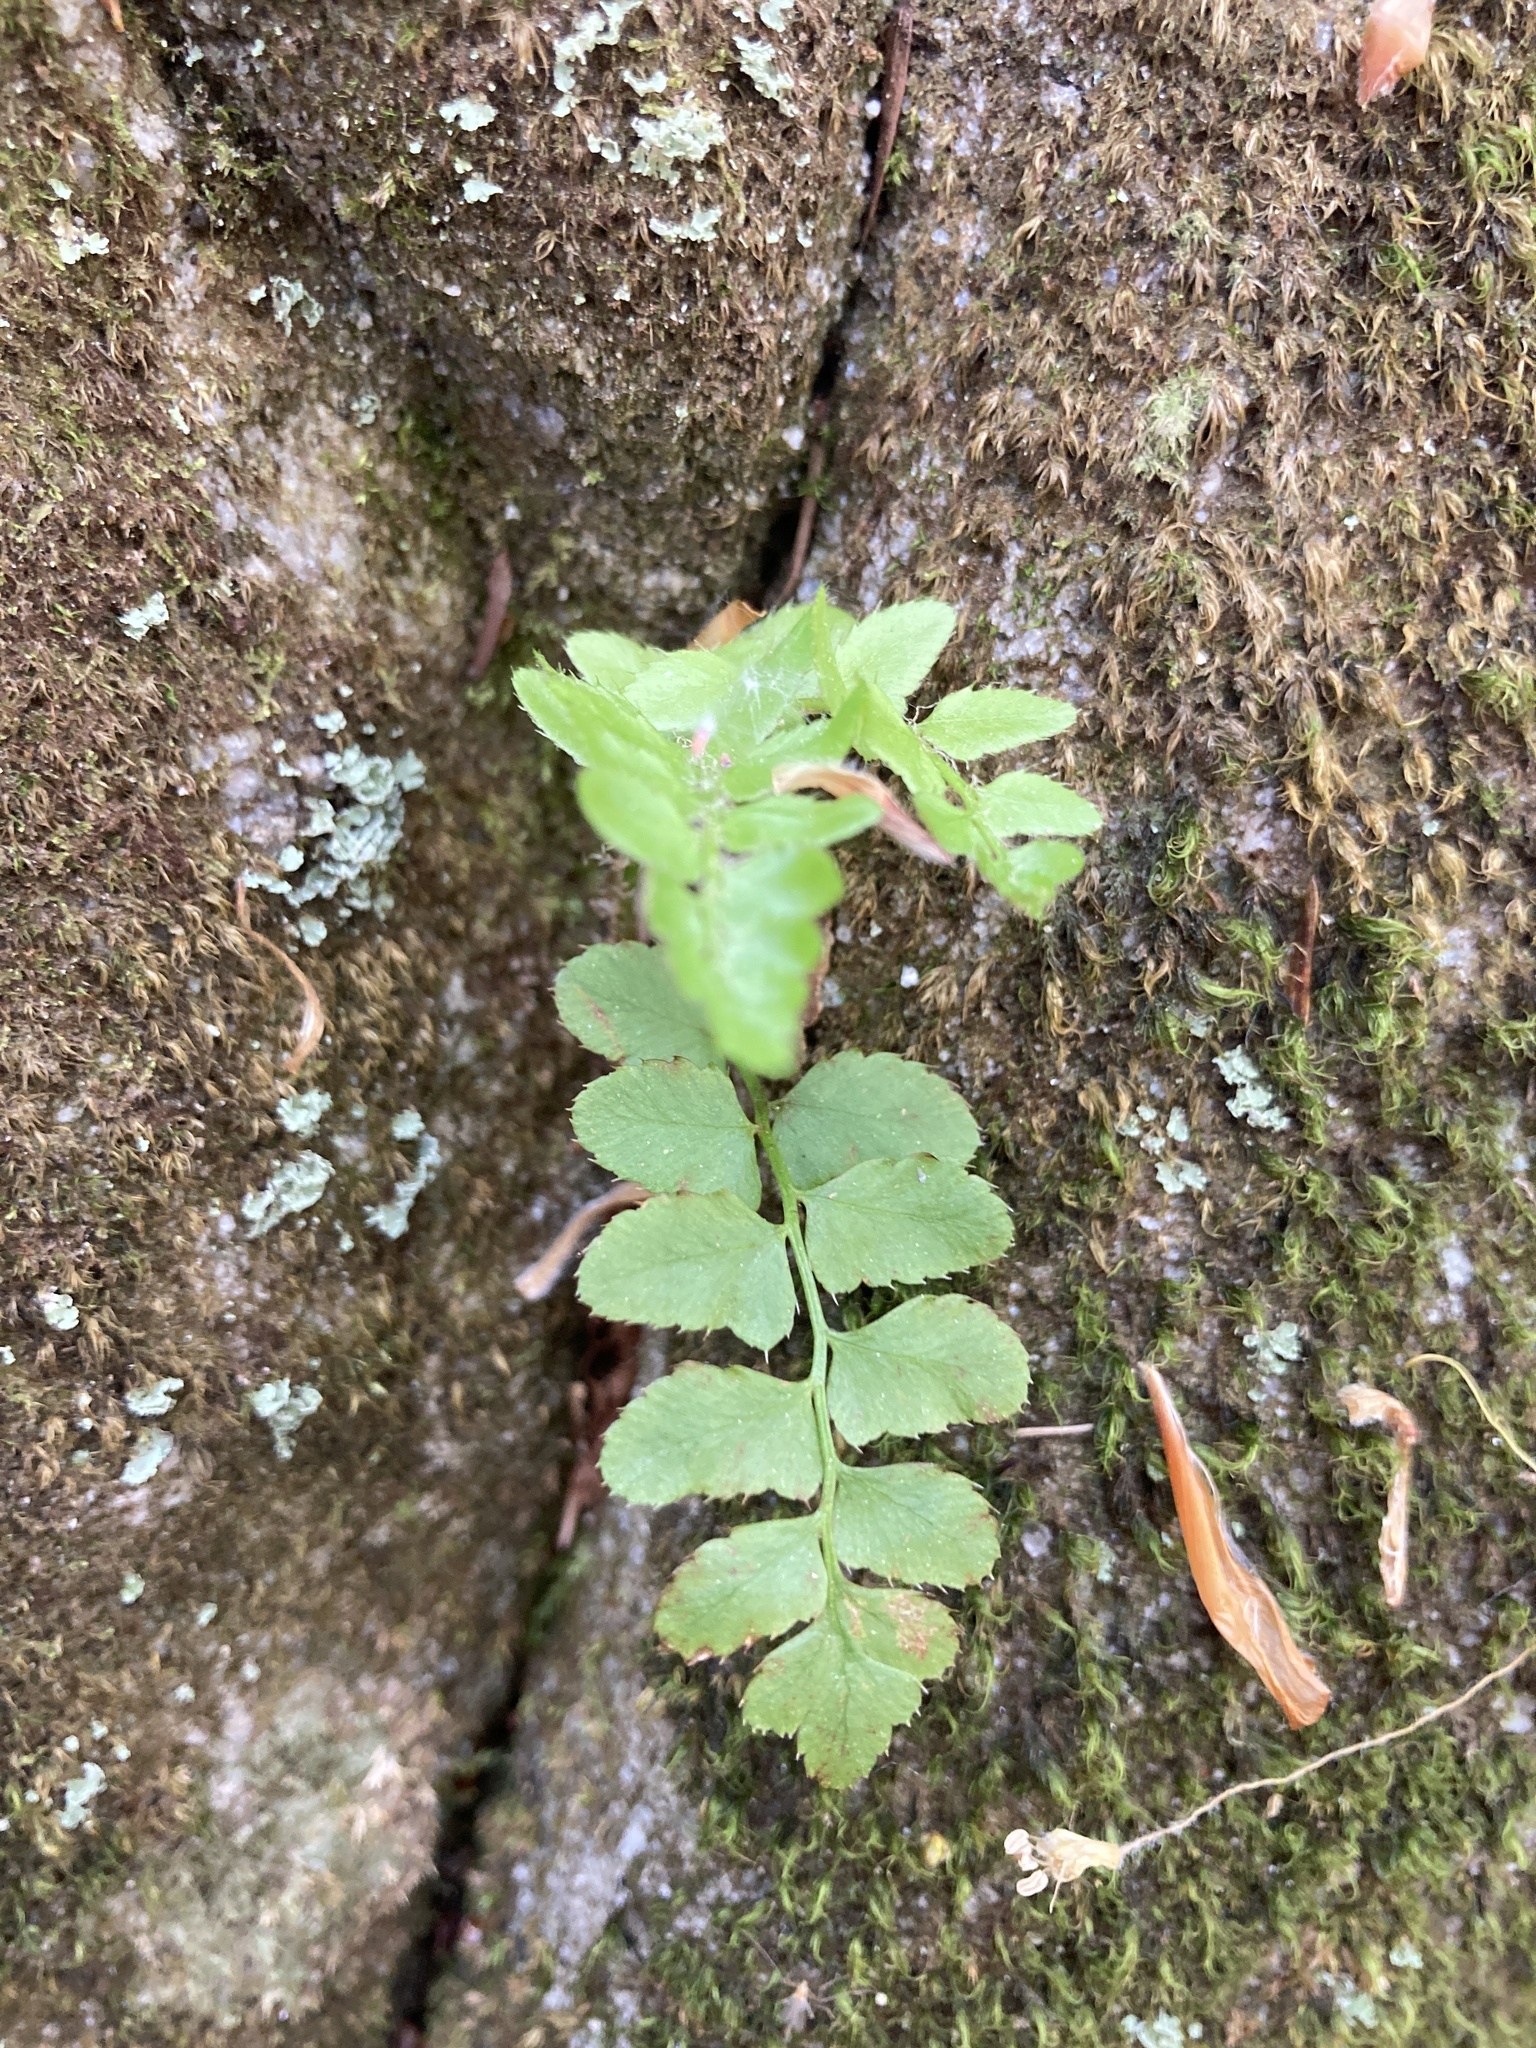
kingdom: Plantae
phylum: Tracheophyta
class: Polypodiopsida
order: Polypodiales
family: Dryopteridaceae
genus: Polystichum
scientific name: Polystichum acrostichoides
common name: Christmas fern
